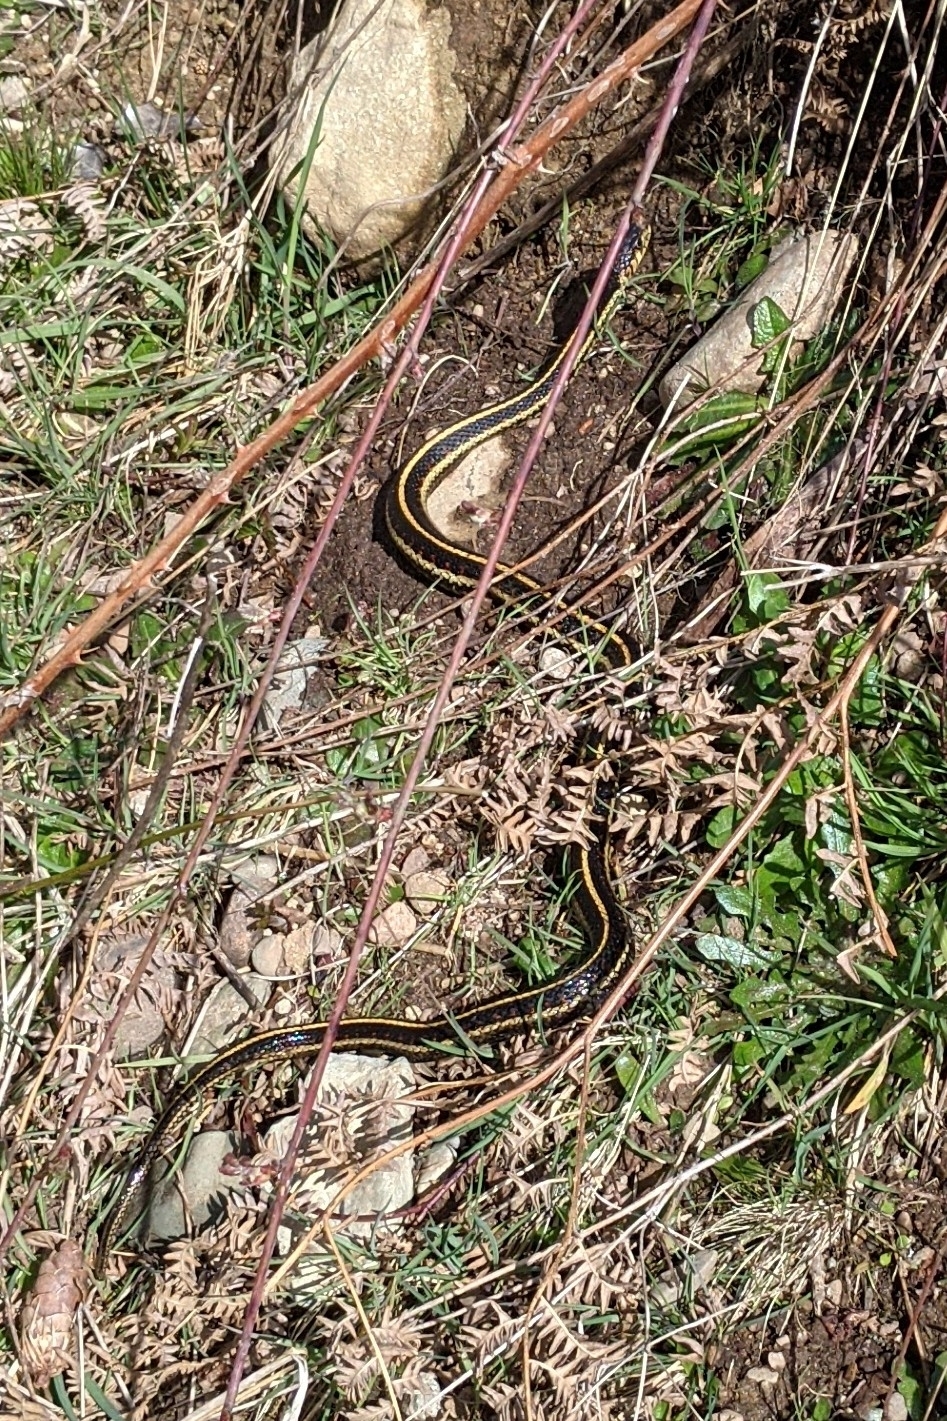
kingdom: Animalia
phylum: Chordata
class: Squamata
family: Colubridae
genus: Thamnophis
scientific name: Thamnophis sirtalis
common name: Common garter snake
